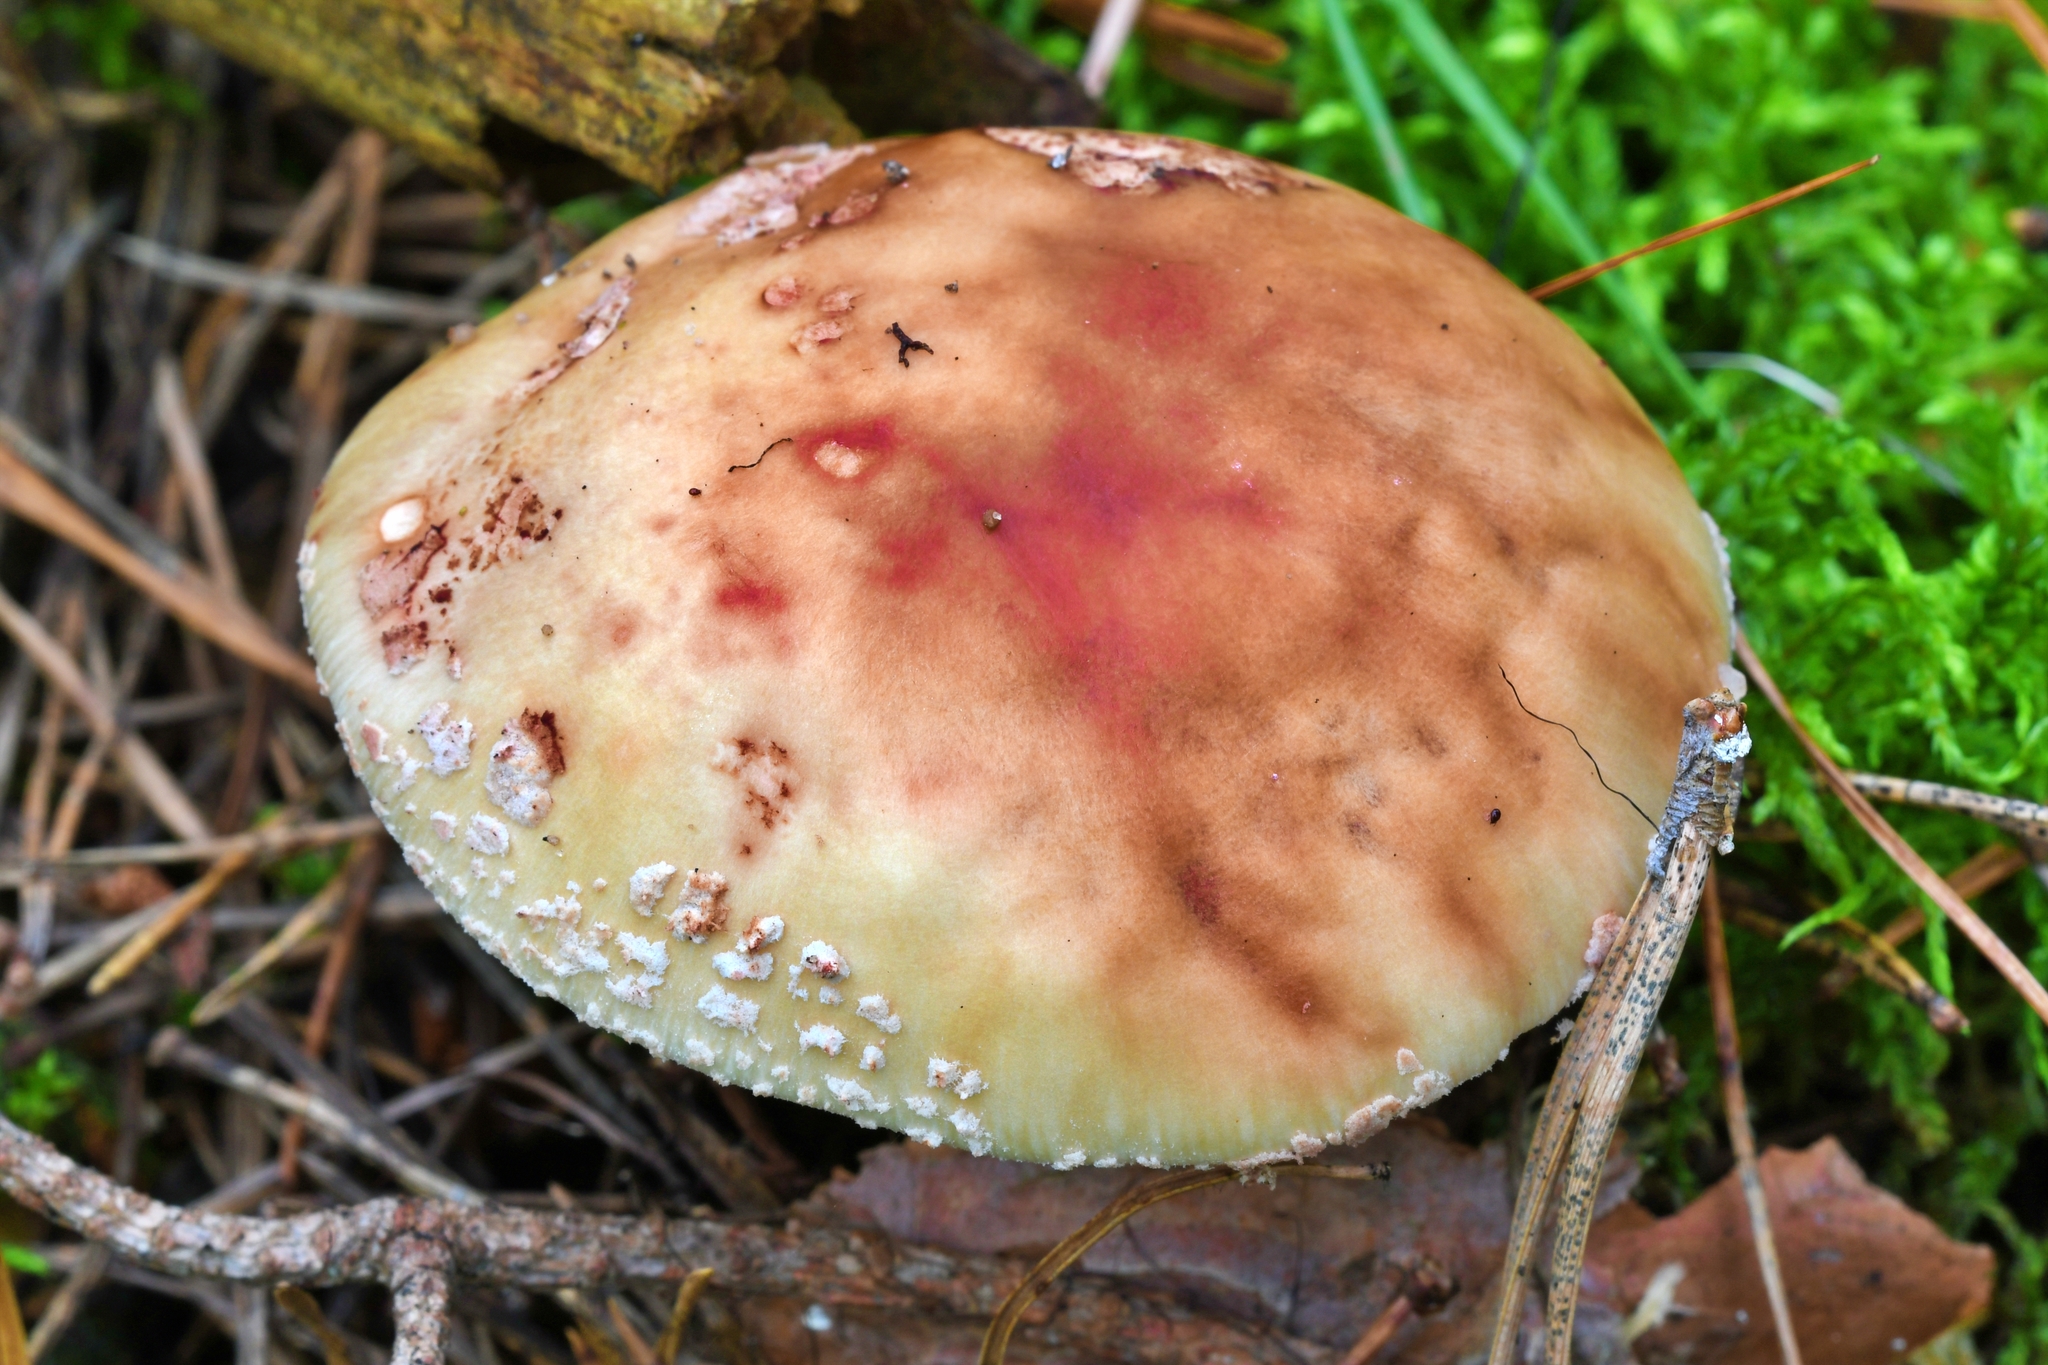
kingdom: Fungi
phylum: Basidiomycota
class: Agaricomycetes
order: Agaricales
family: Amanitaceae
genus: Amanita
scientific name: Amanita rubescens
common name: Blusher
